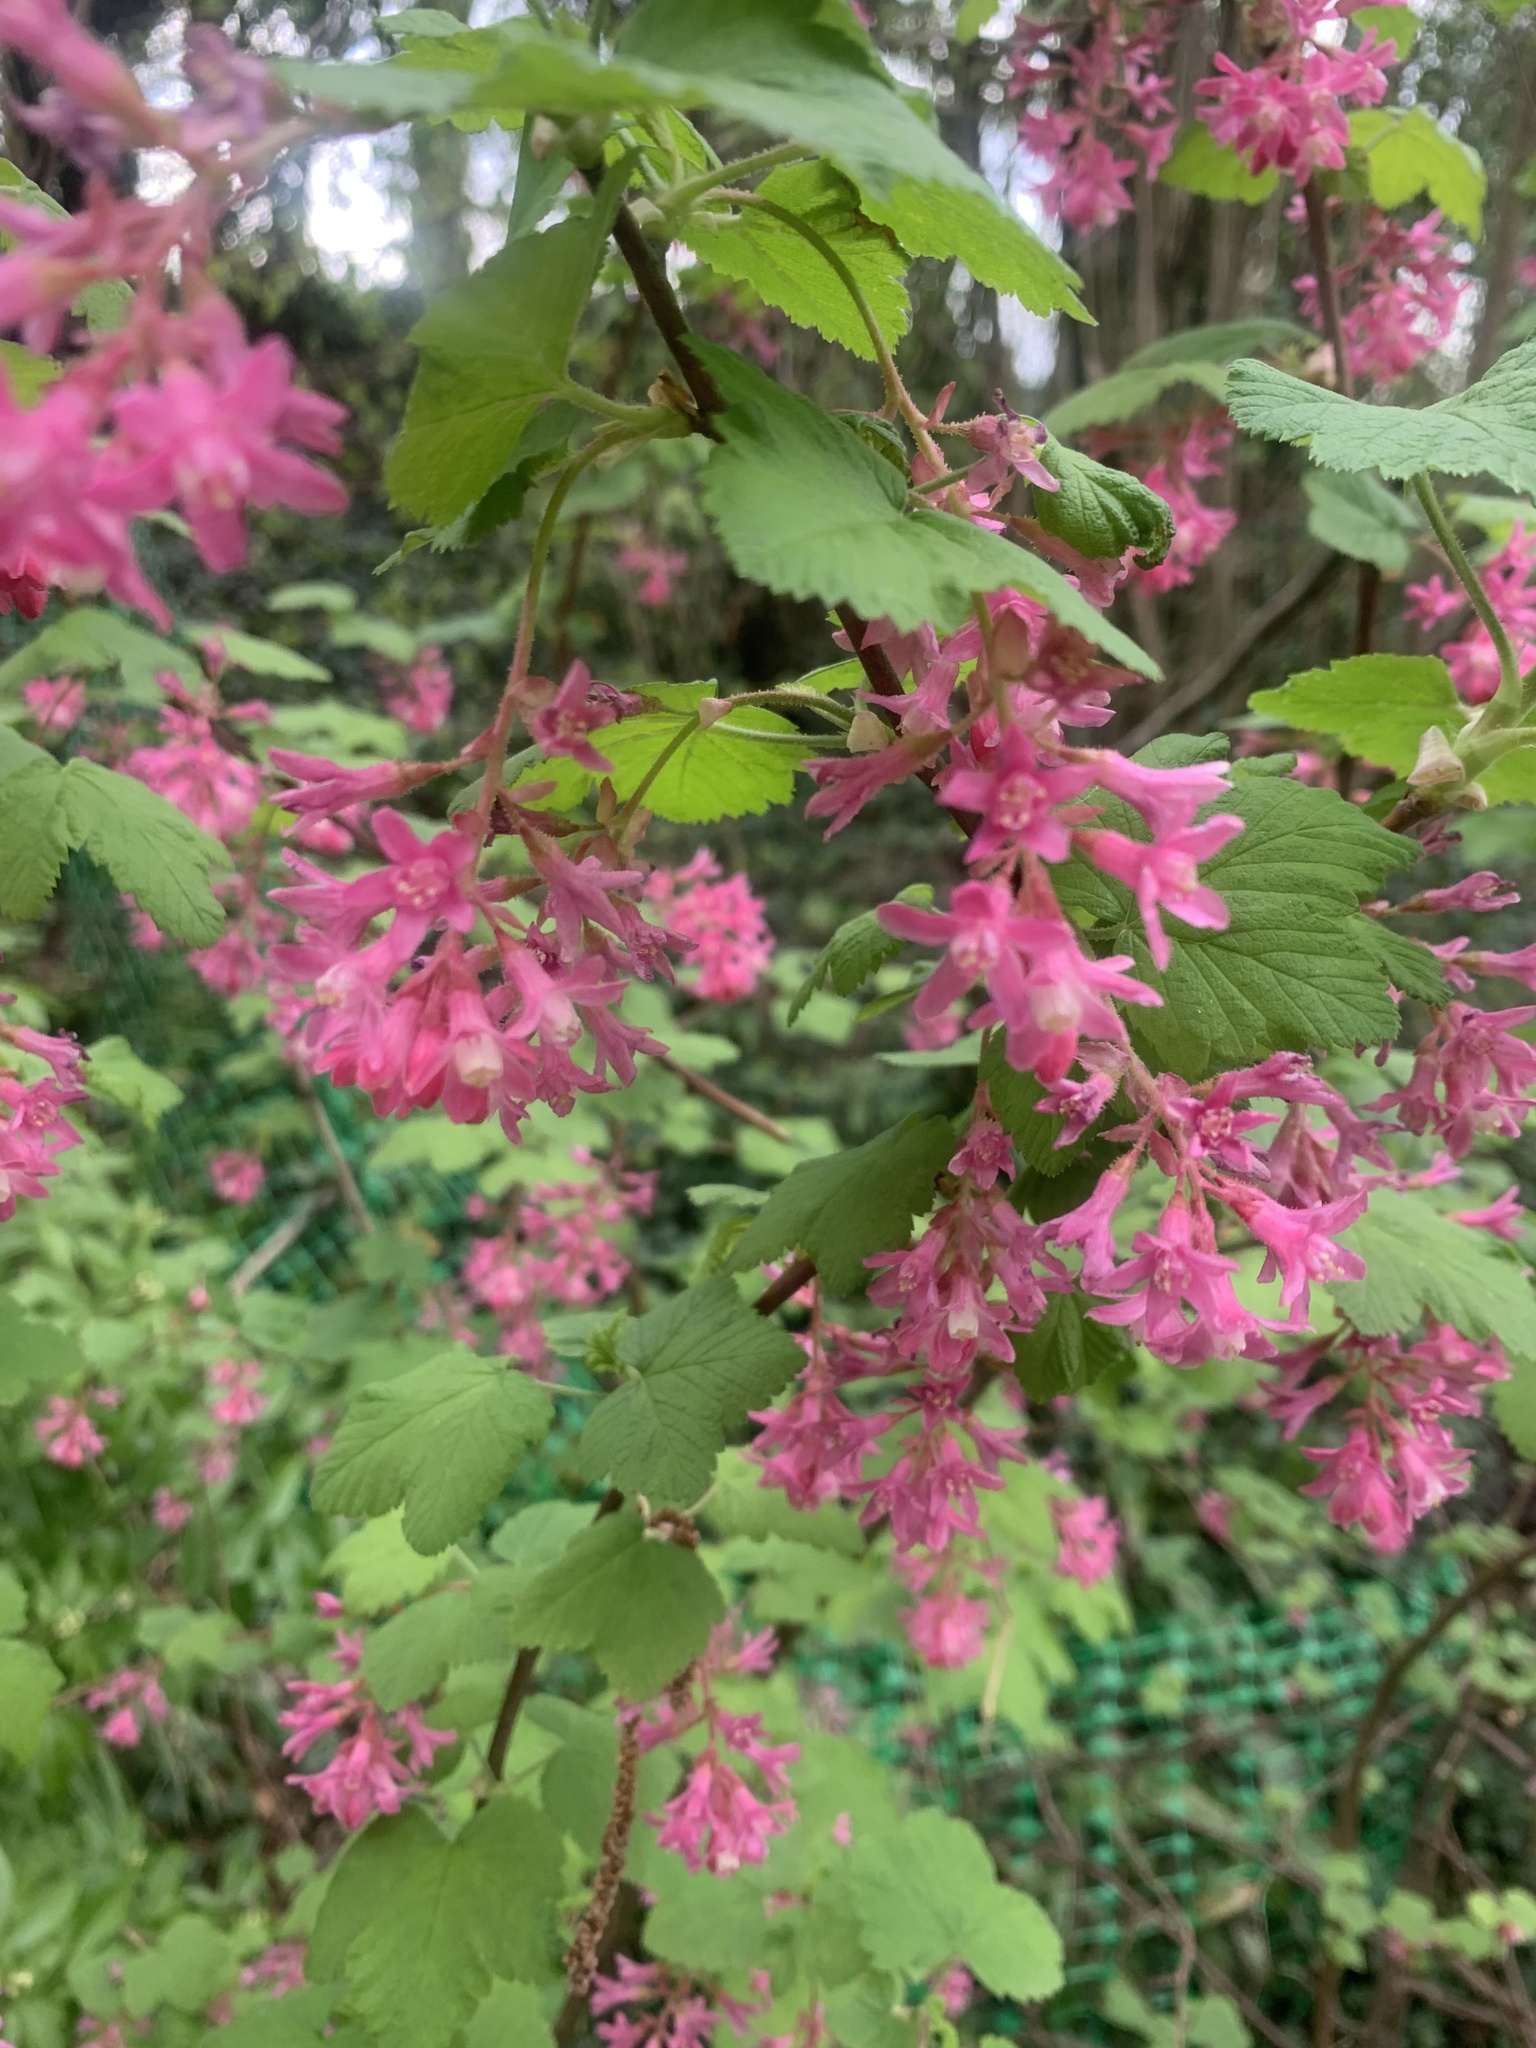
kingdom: Plantae
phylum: Tracheophyta
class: Magnoliopsida
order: Saxifragales
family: Grossulariaceae
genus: Ribes
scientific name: Ribes sanguineum
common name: Flowering currant
